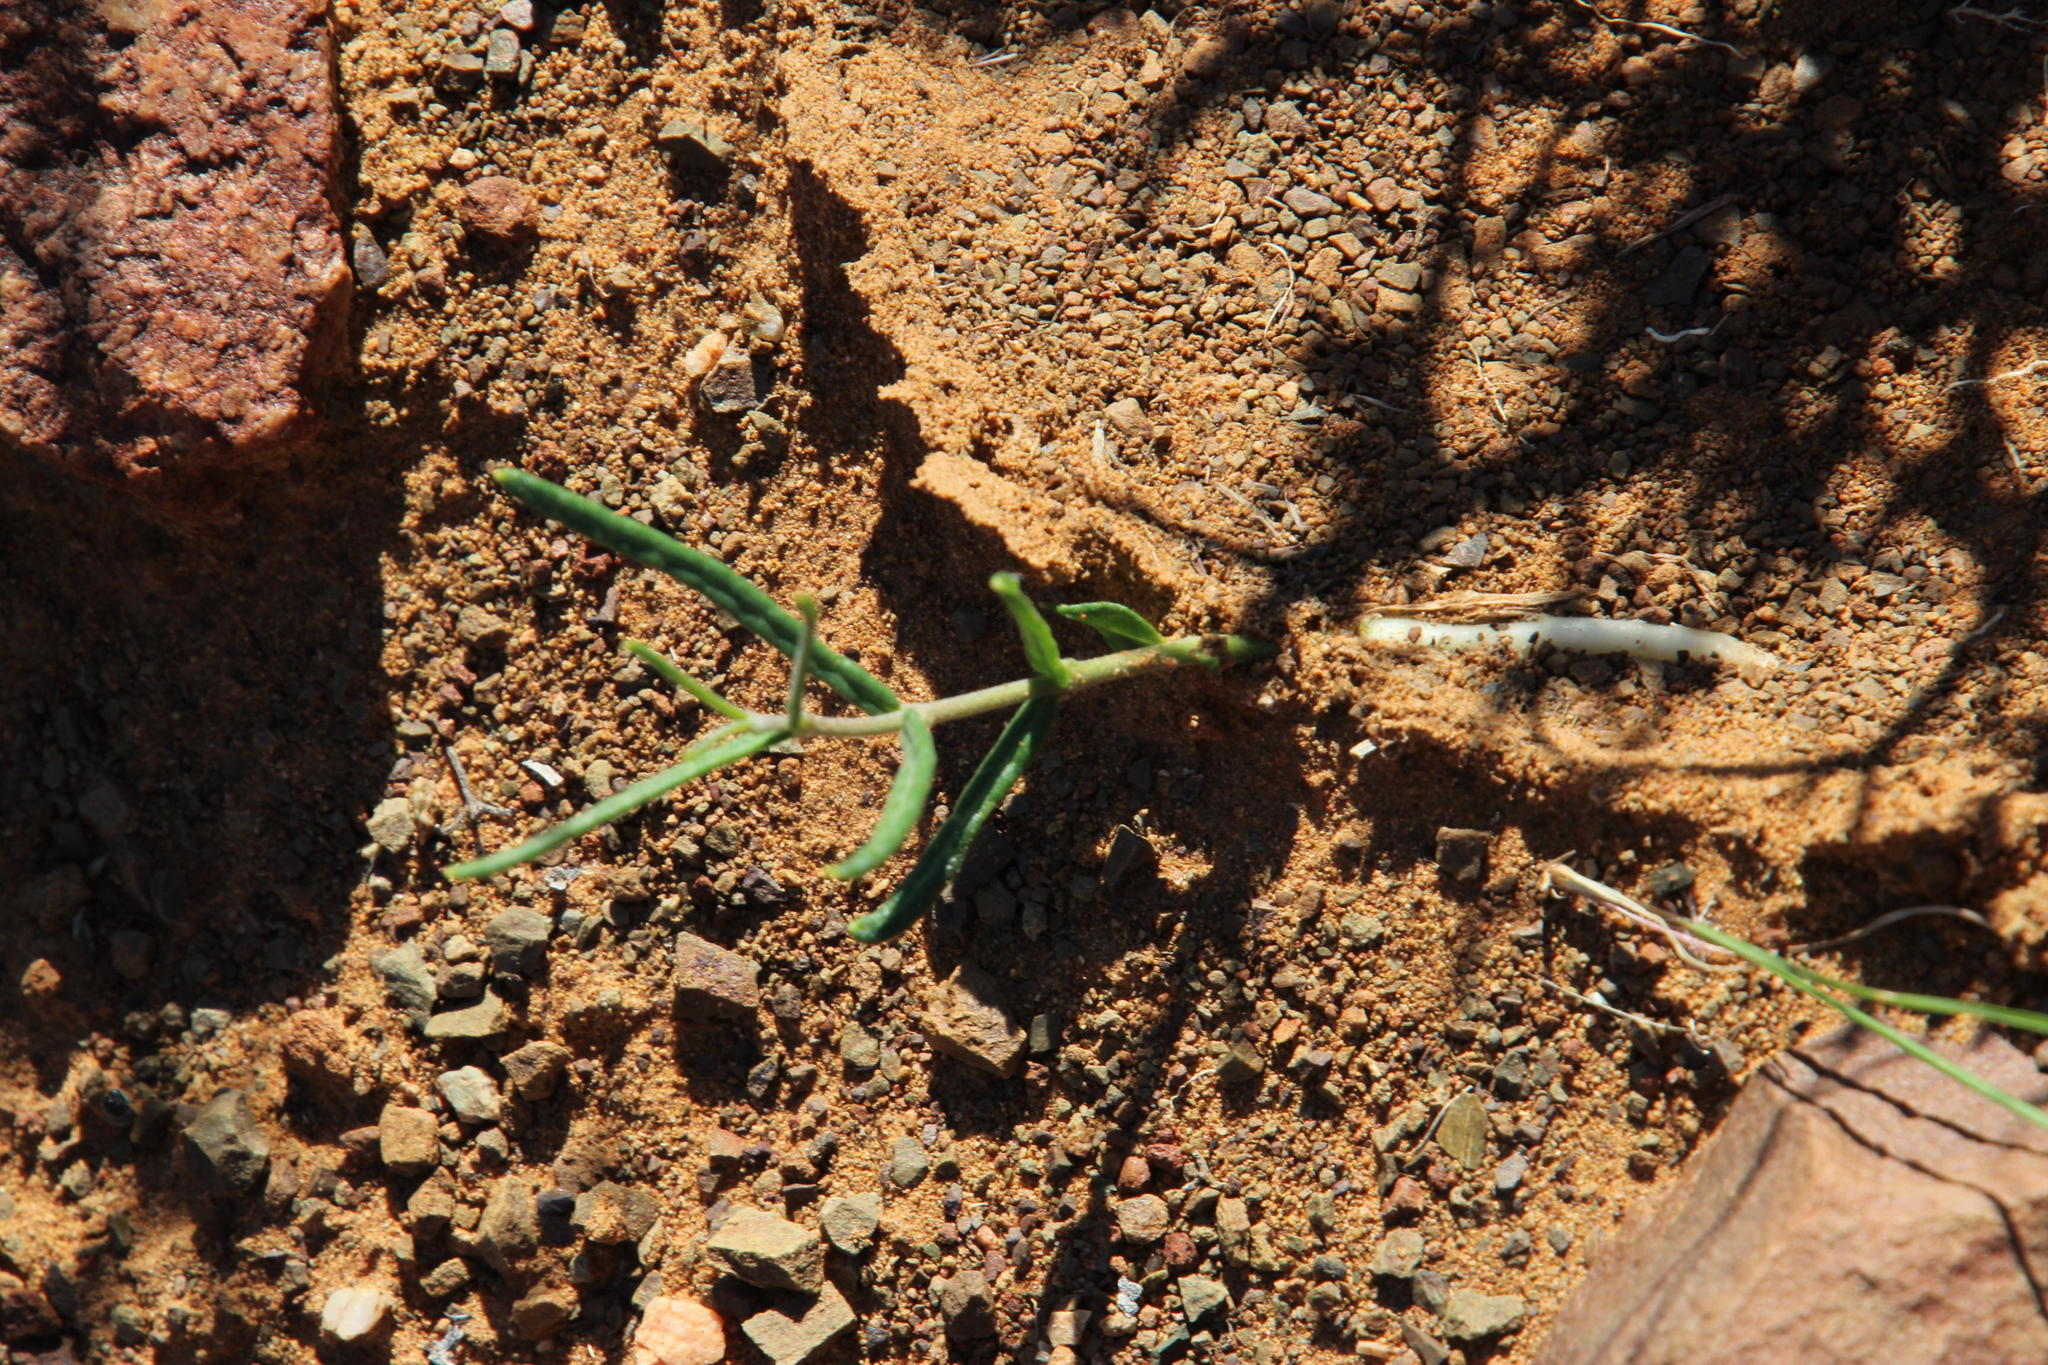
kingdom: Plantae
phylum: Tracheophyta
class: Magnoliopsida
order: Gentianales
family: Apocynaceae
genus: Fockea
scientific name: Fockea angustifolia
